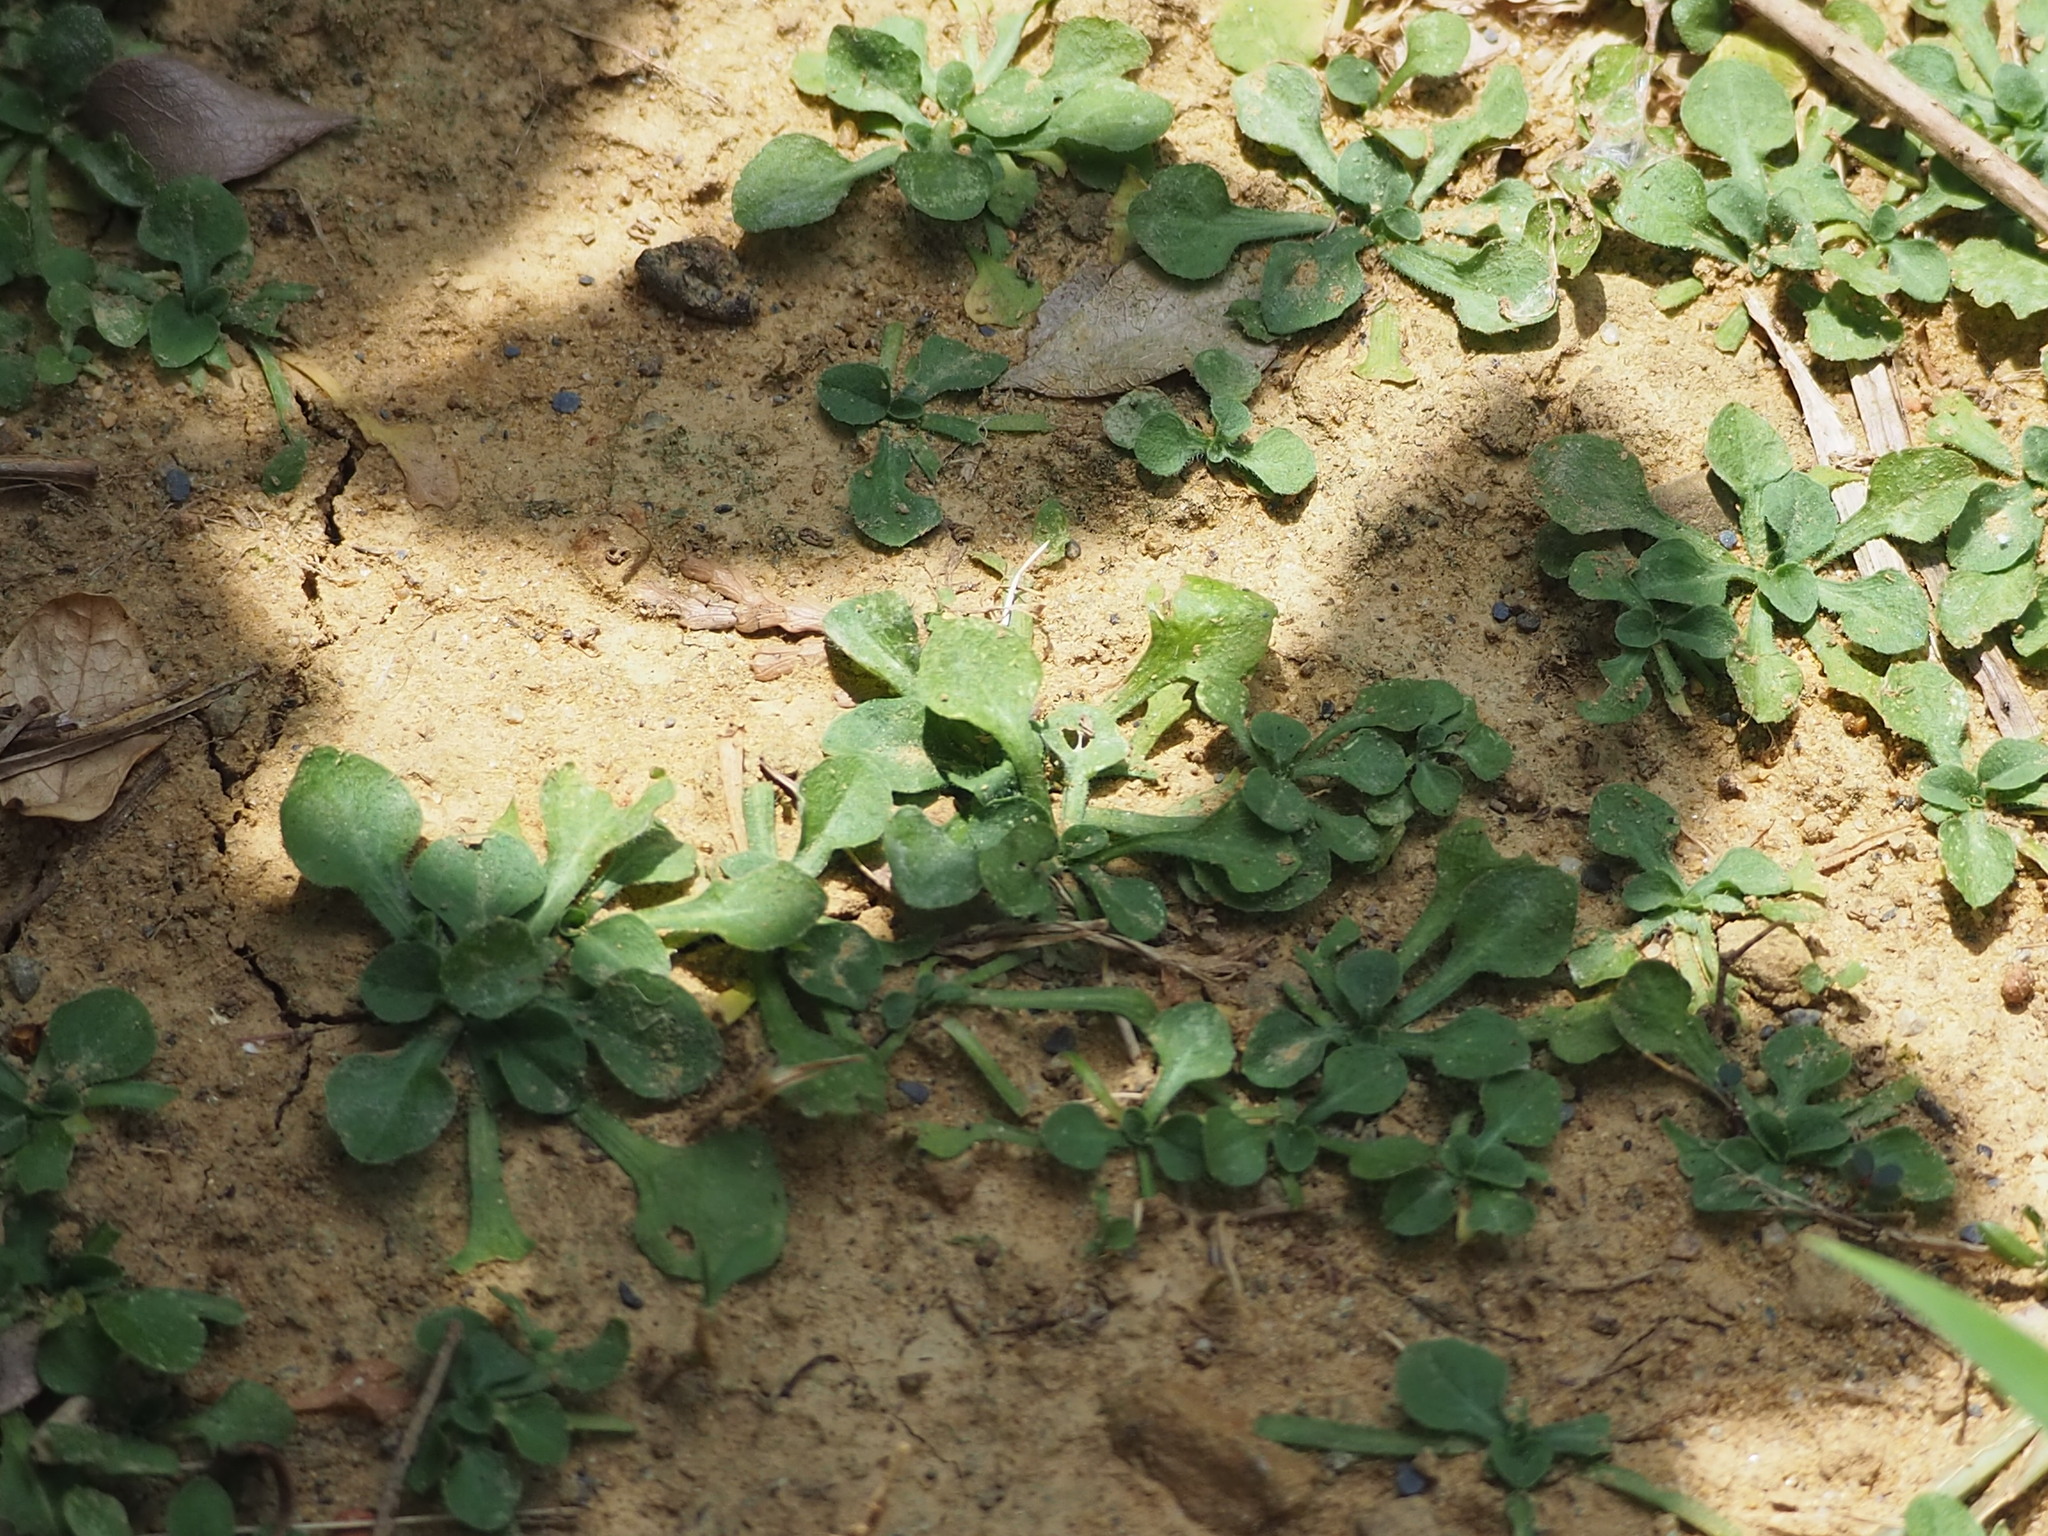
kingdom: Plantae
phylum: Tracheophyta
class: Magnoliopsida
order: Asterales
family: Asteraceae
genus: Erigeron
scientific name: Erigeron bellioides
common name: Bellorita
